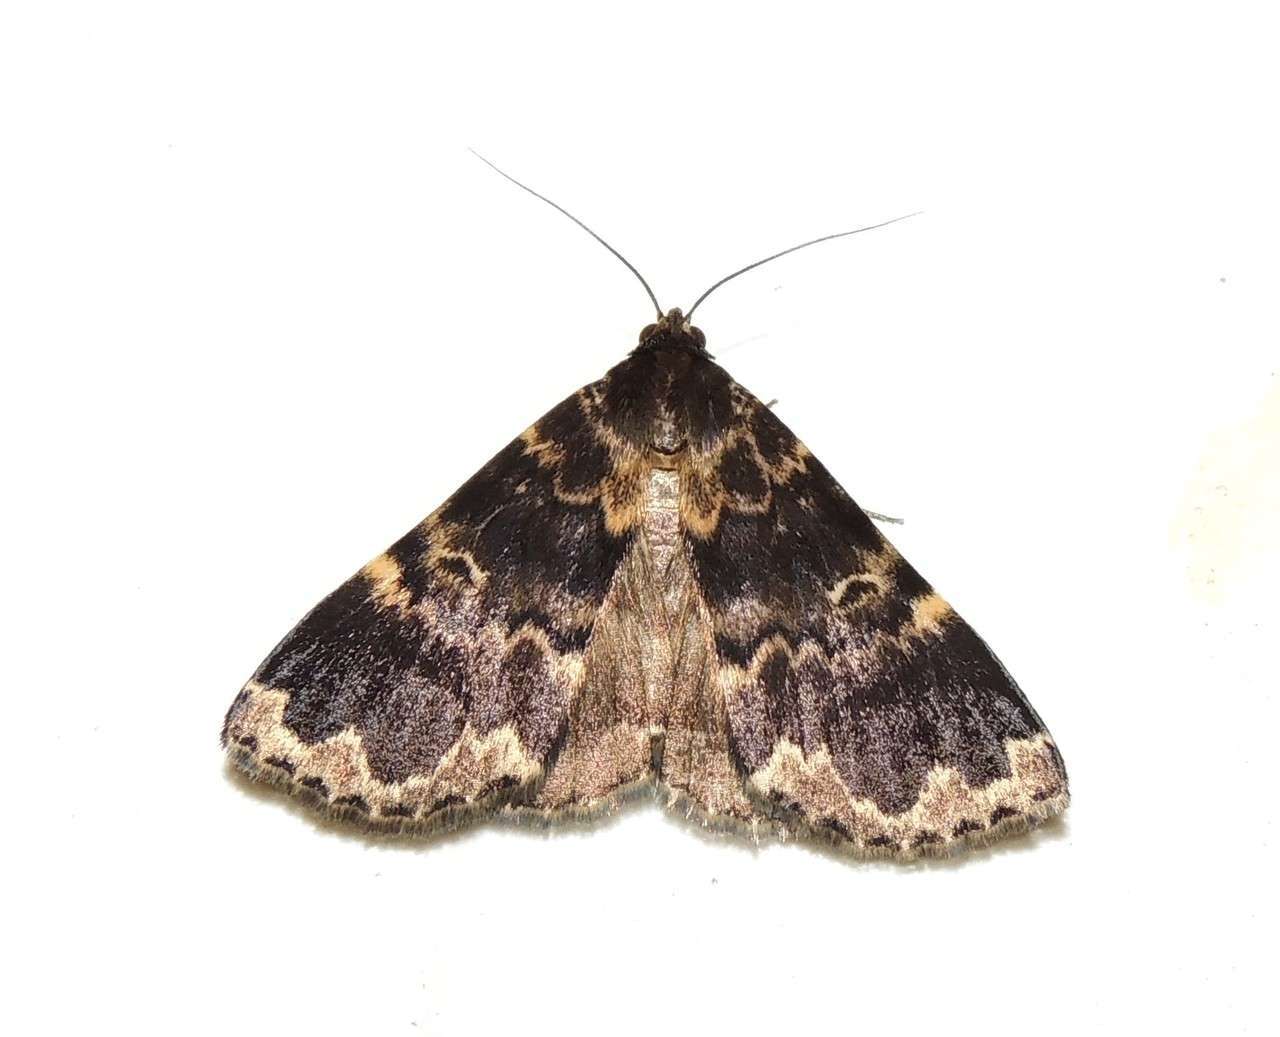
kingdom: Animalia
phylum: Arthropoda
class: Insecta
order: Lepidoptera
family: Erebidae
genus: Mormoscopa
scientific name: Mormoscopa sordescens
